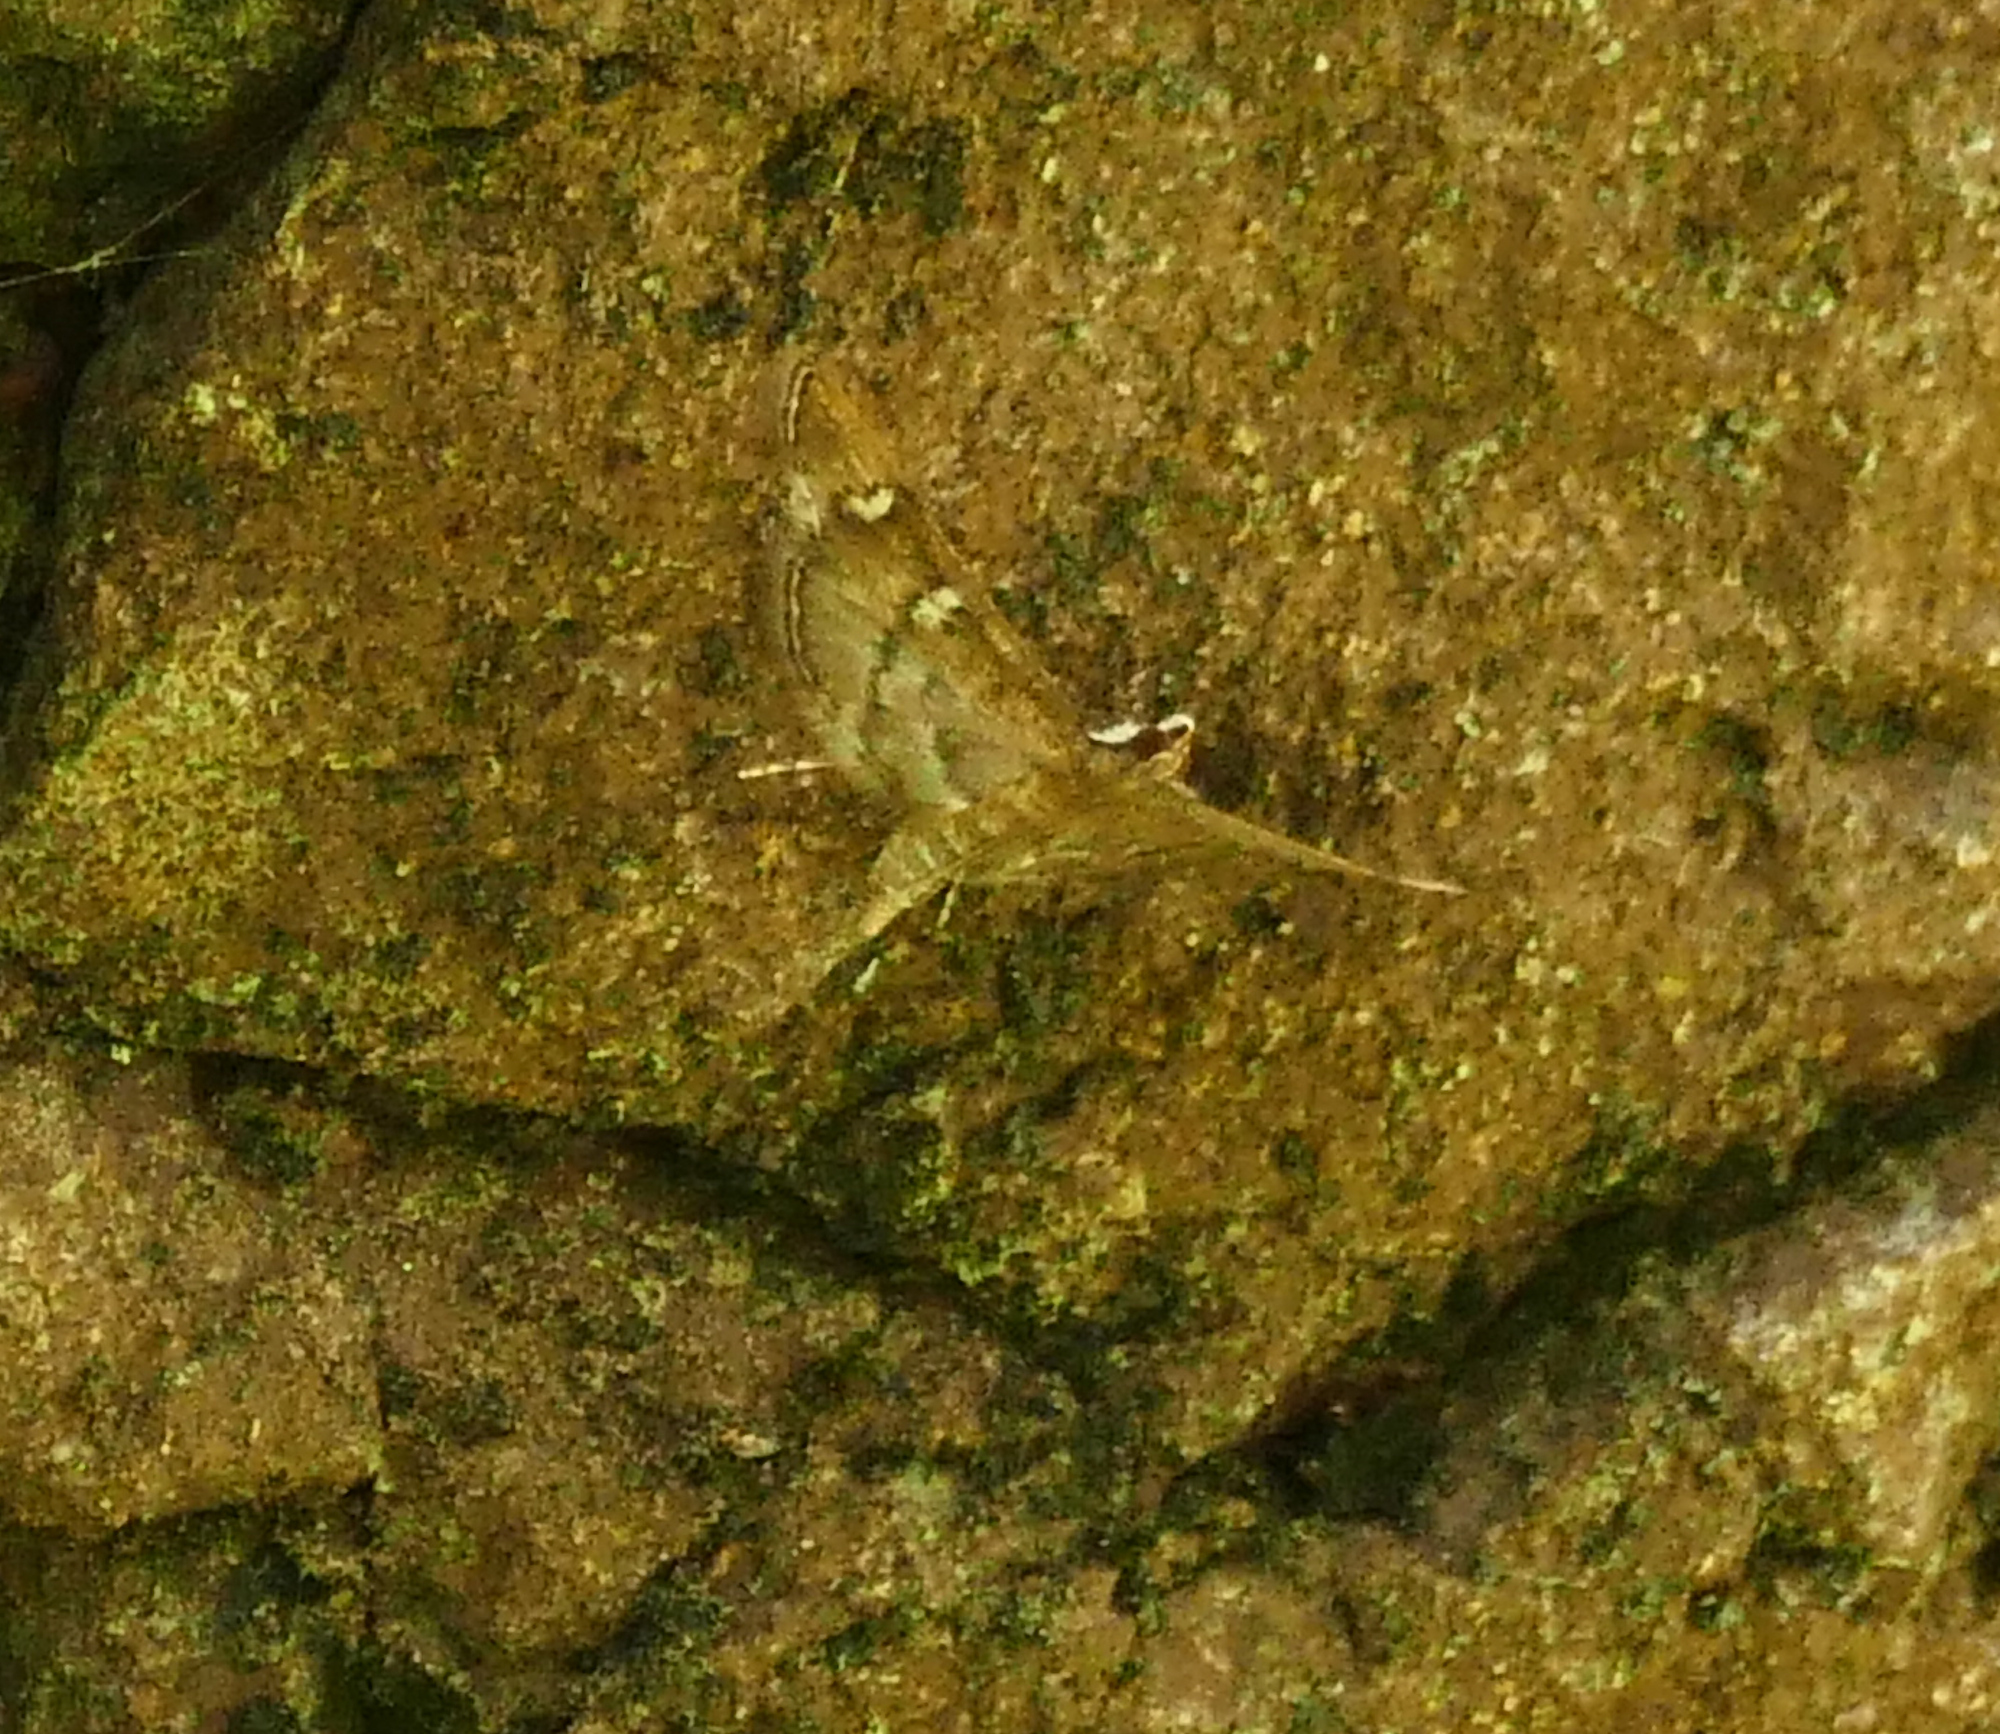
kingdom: Animalia
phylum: Arthropoda
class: Insecta
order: Lepidoptera
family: Crambidae
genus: Desmia
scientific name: Desmia
